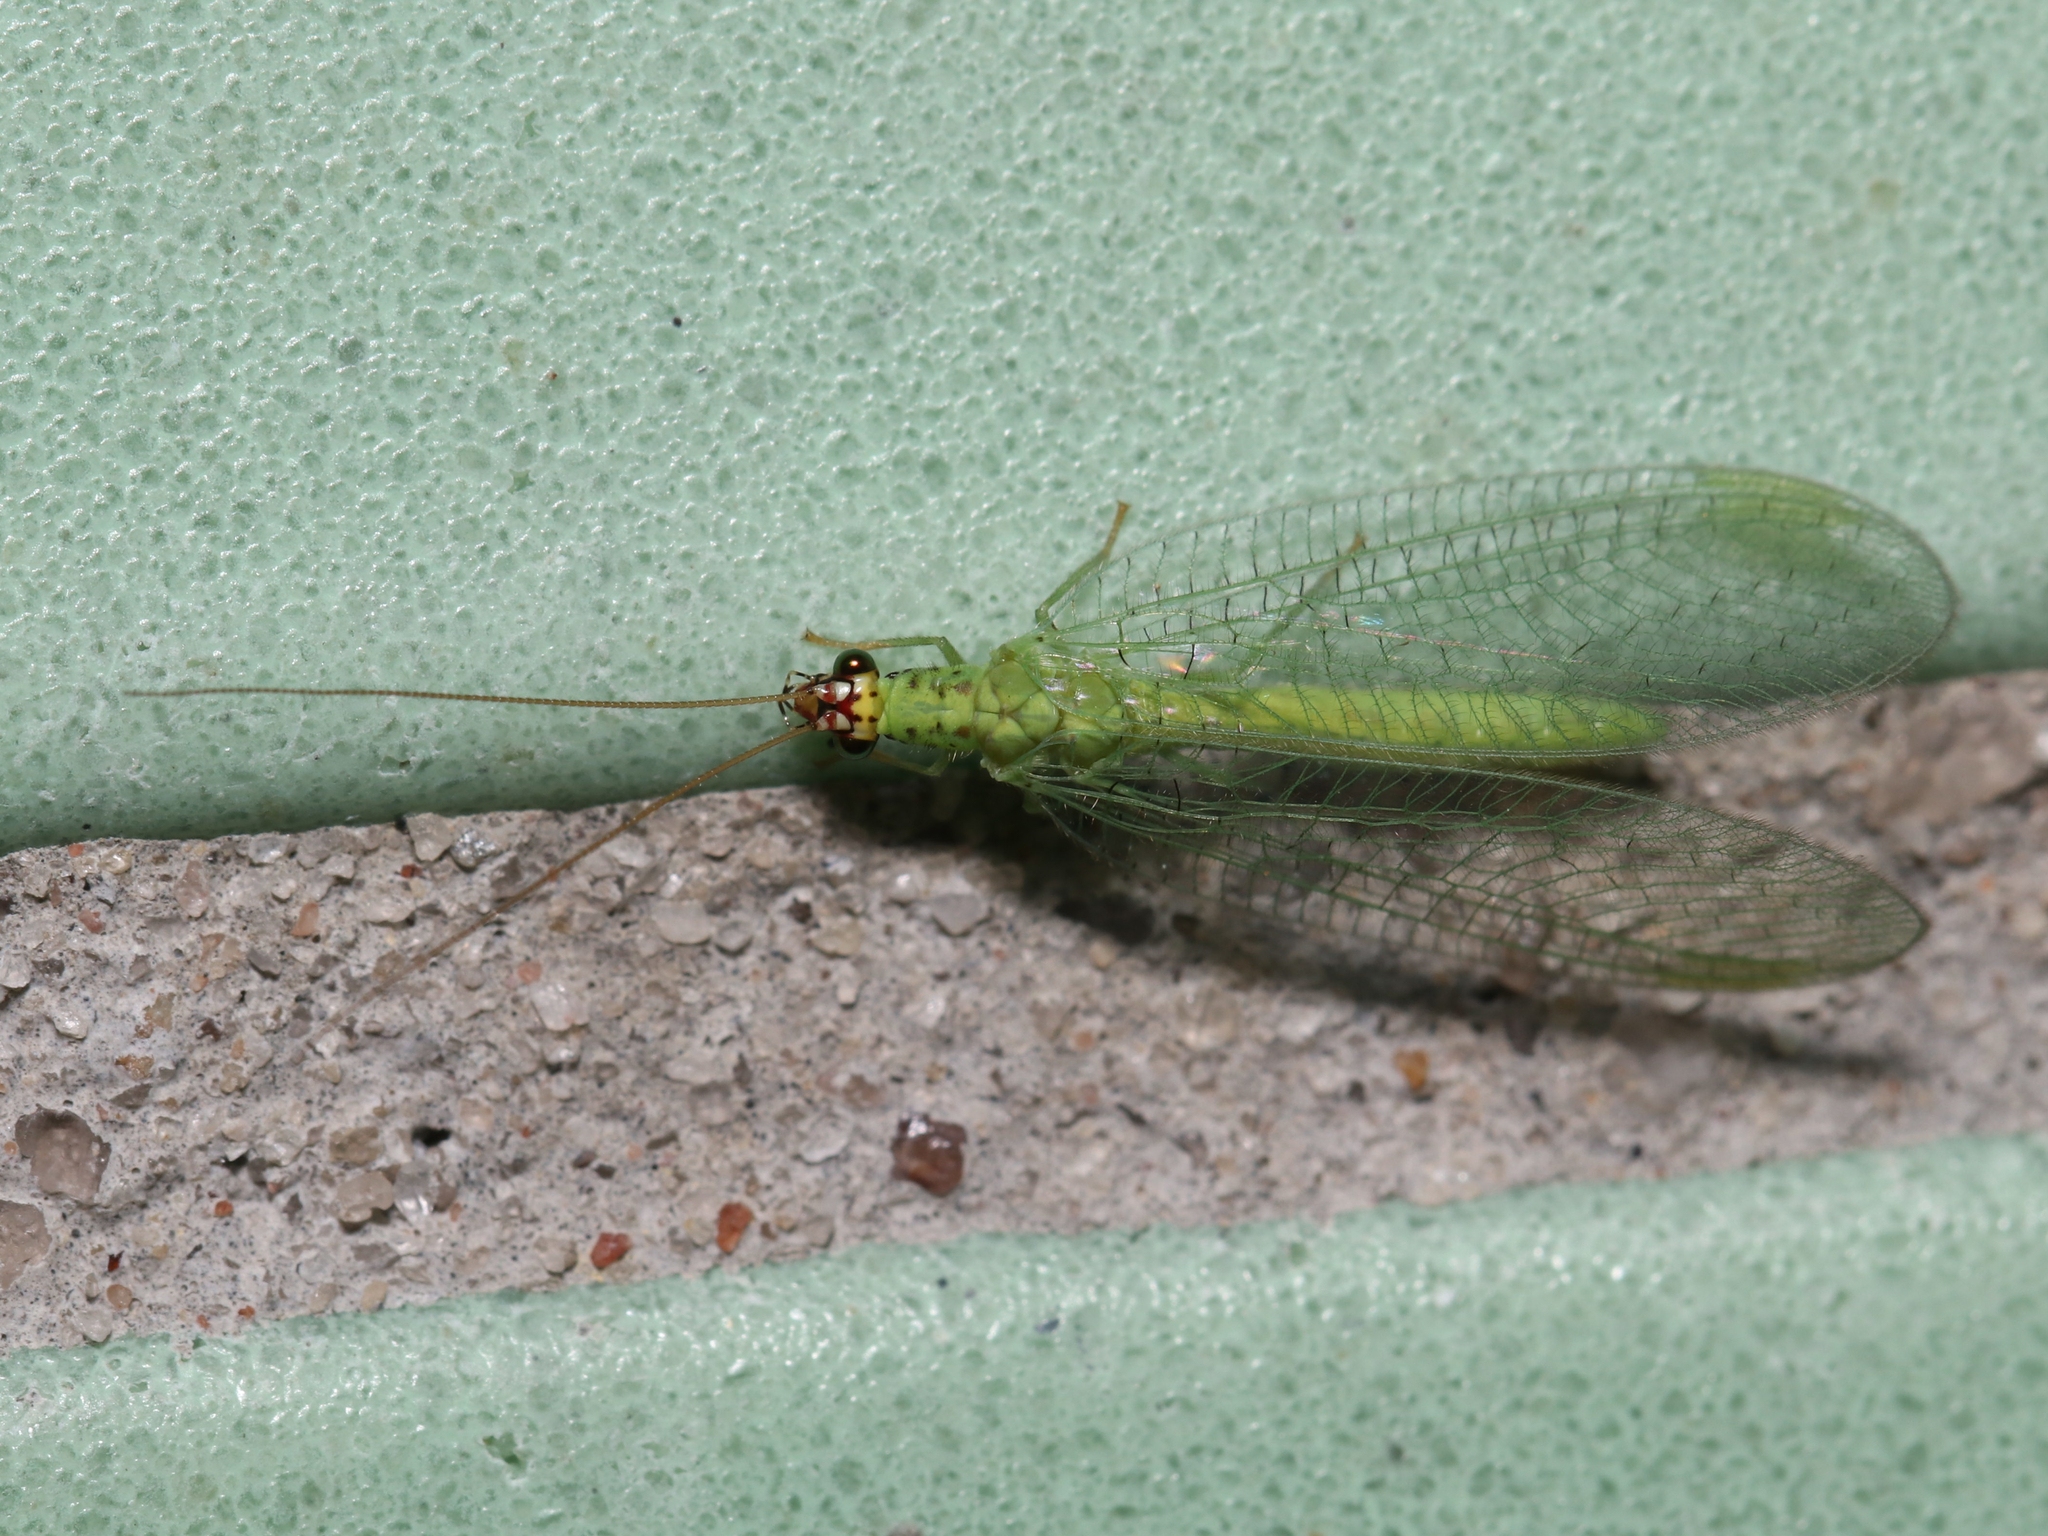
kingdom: Animalia
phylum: Arthropoda
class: Insecta
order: Neuroptera
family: Chrysopidae
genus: Chrysopa
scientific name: Chrysopa oculata
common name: Golden-eyed lacewing
